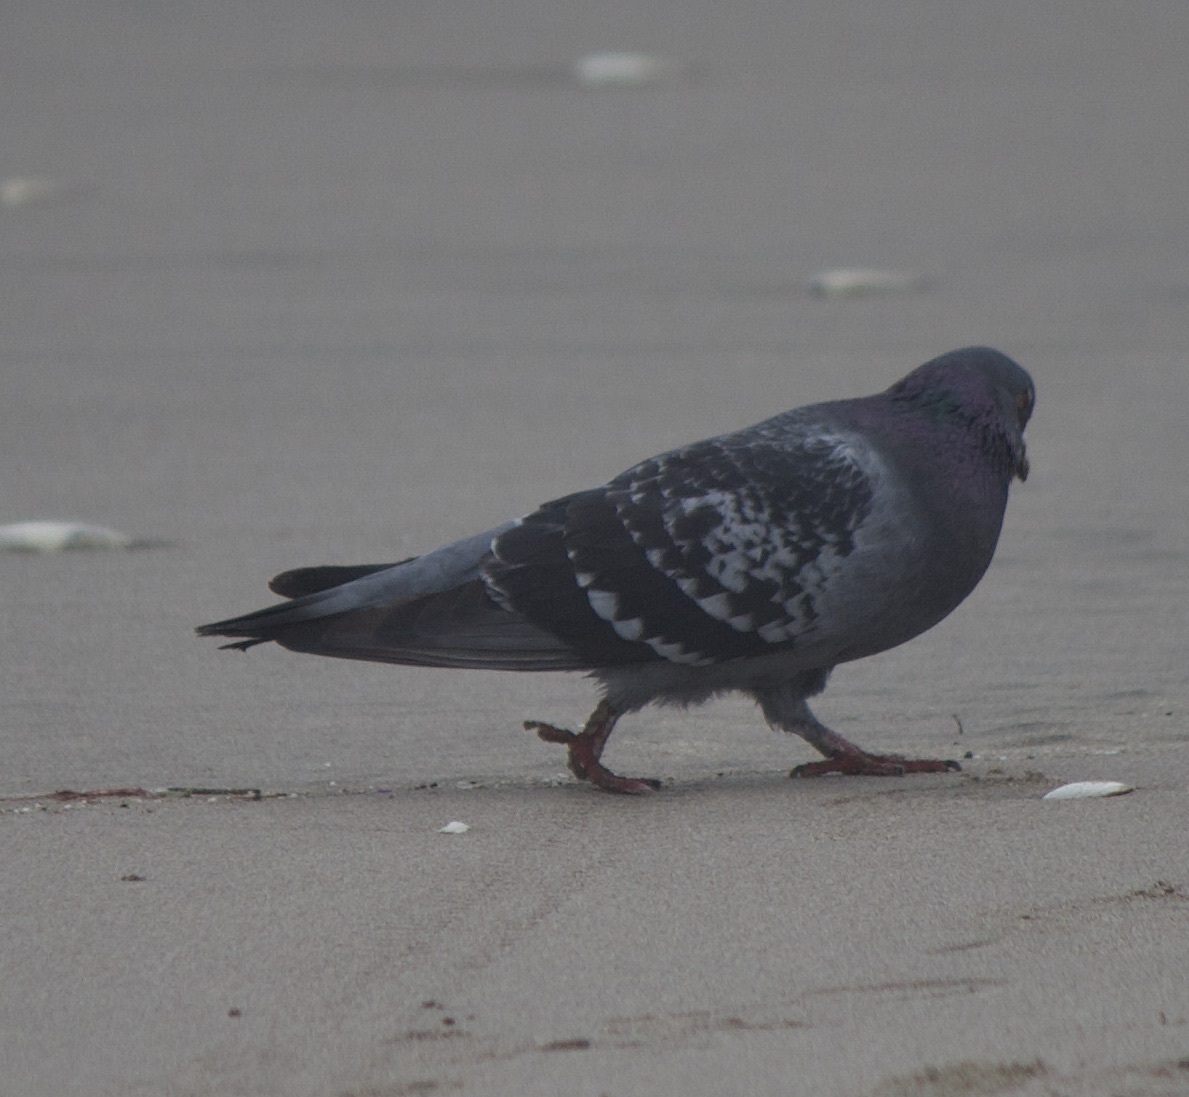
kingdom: Animalia
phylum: Chordata
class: Aves
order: Columbiformes
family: Columbidae
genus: Columba
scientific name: Columba livia
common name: Rock pigeon
